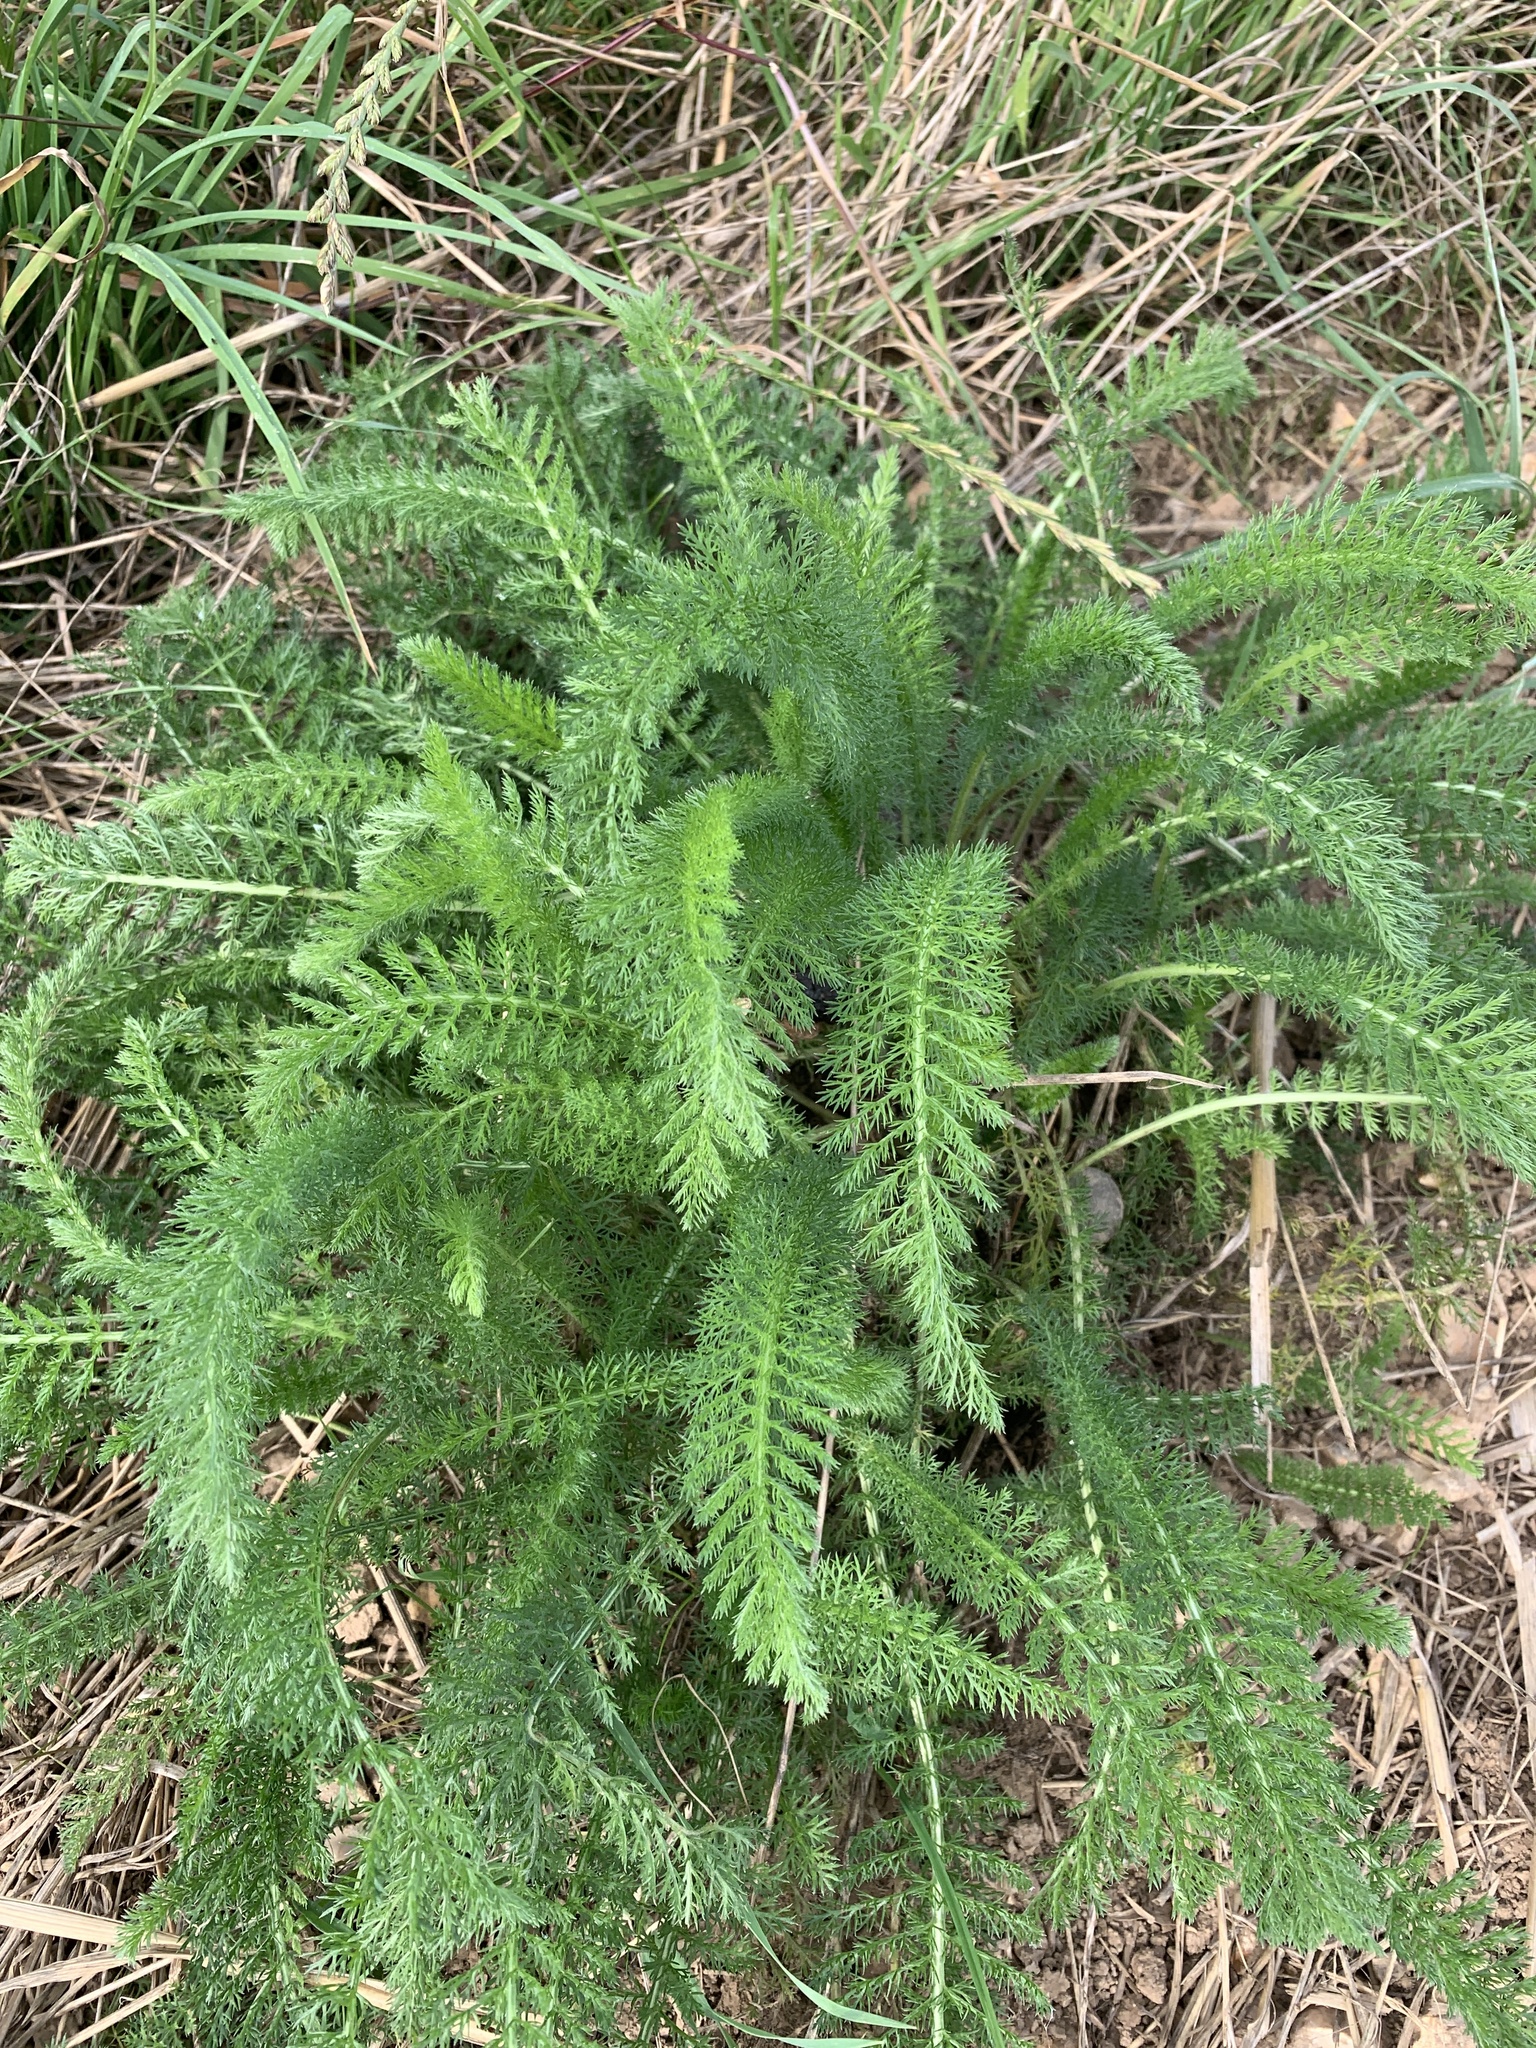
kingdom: Plantae
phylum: Tracheophyta
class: Magnoliopsida
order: Asterales
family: Asteraceae
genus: Achillea
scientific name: Achillea millefolium
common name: Yarrow
